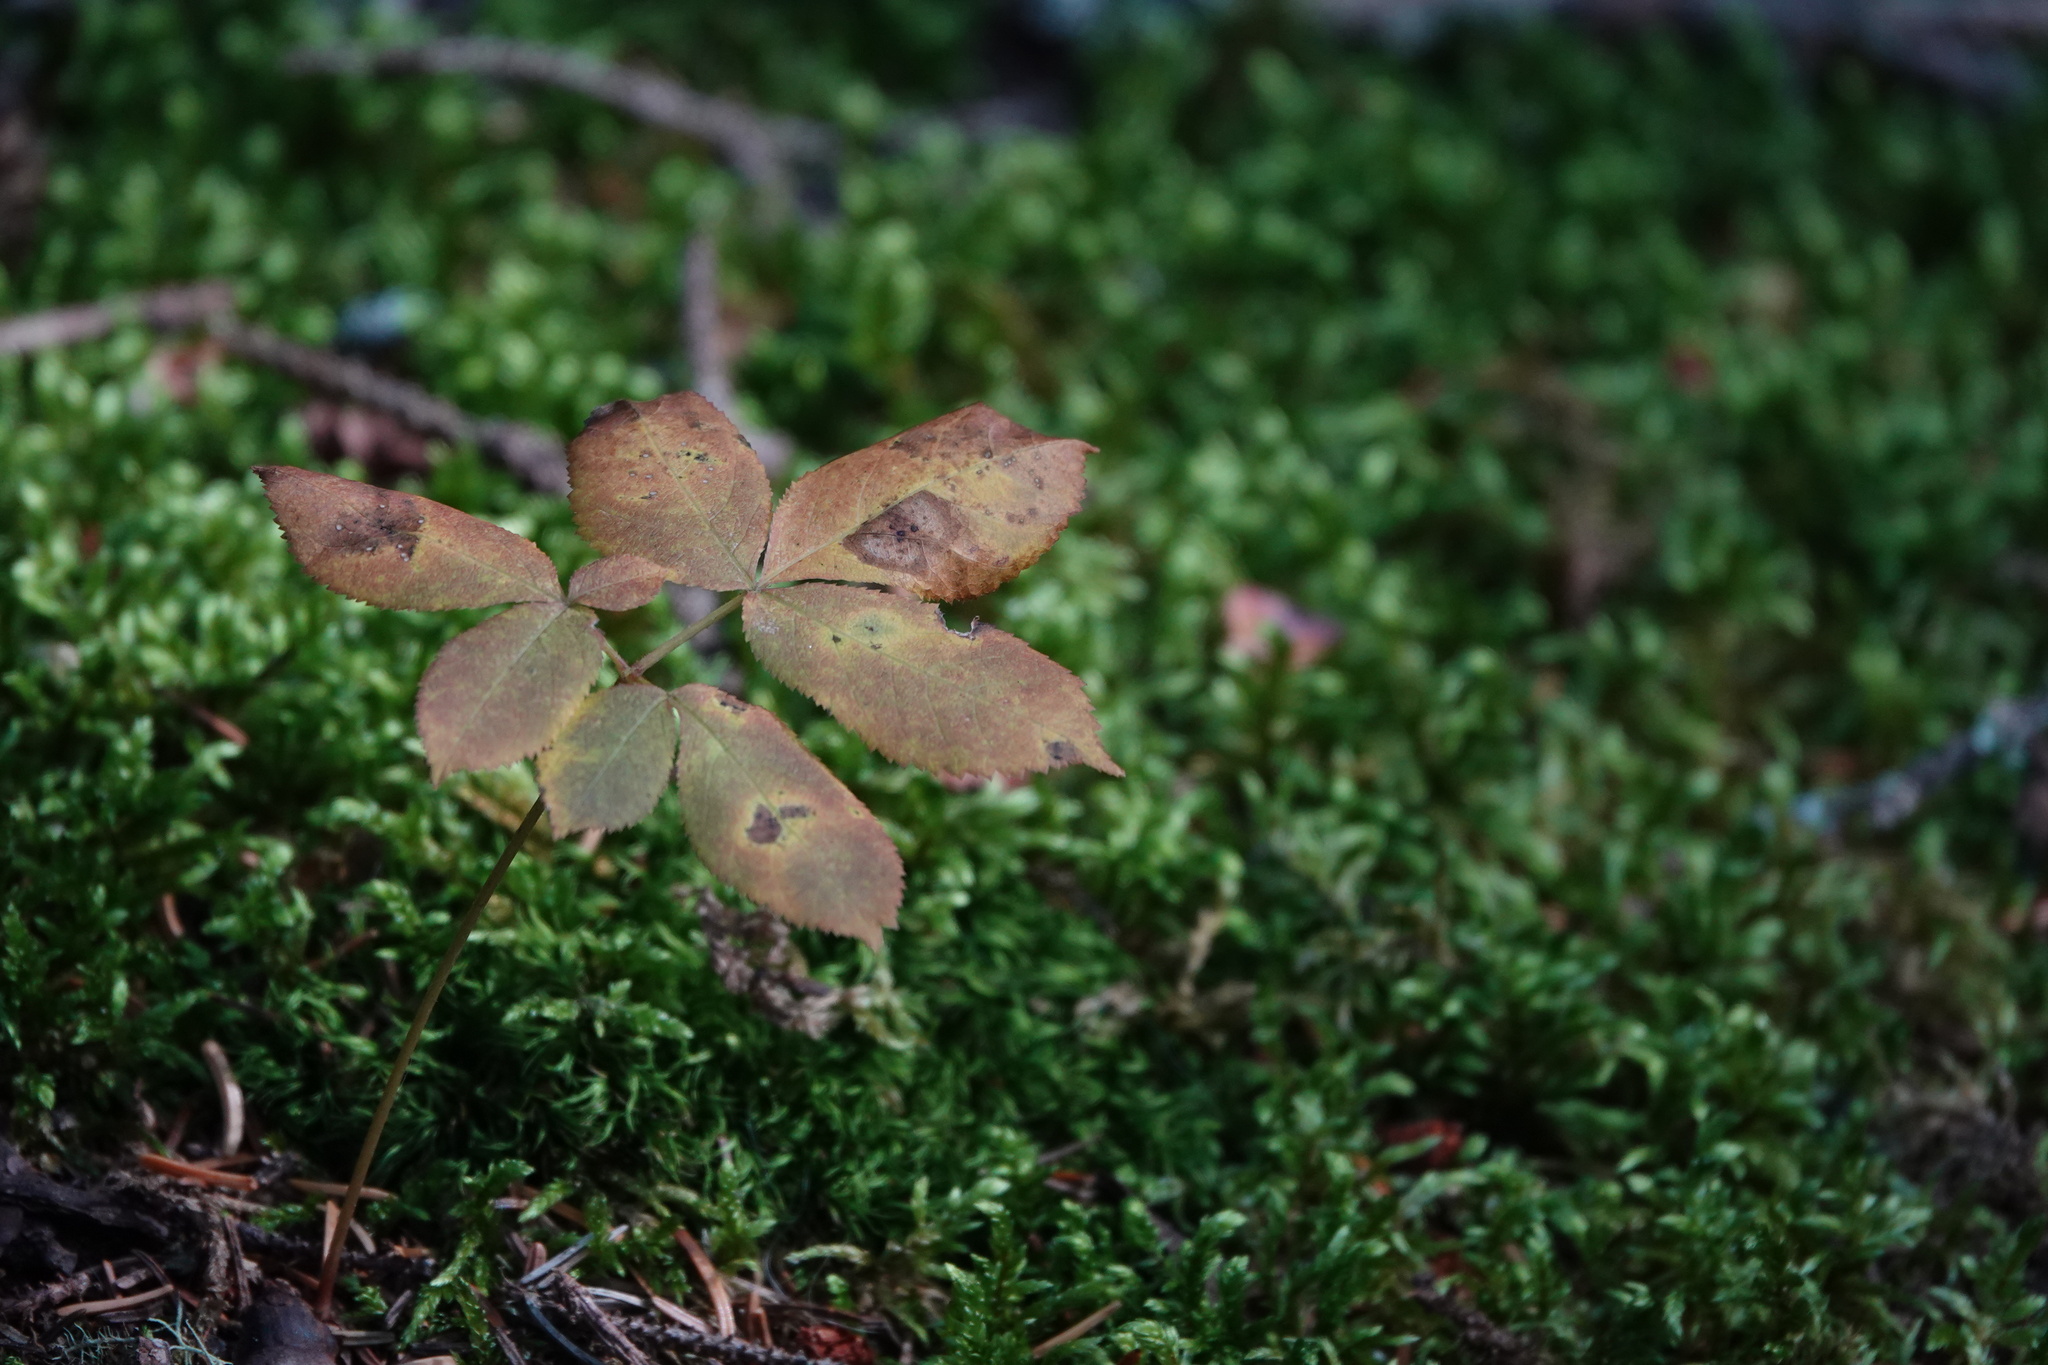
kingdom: Plantae
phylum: Tracheophyta
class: Magnoliopsida
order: Apiales
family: Araliaceae
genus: Aralia
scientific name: Aralia nudicaulis
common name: Wild sarsaparilla
